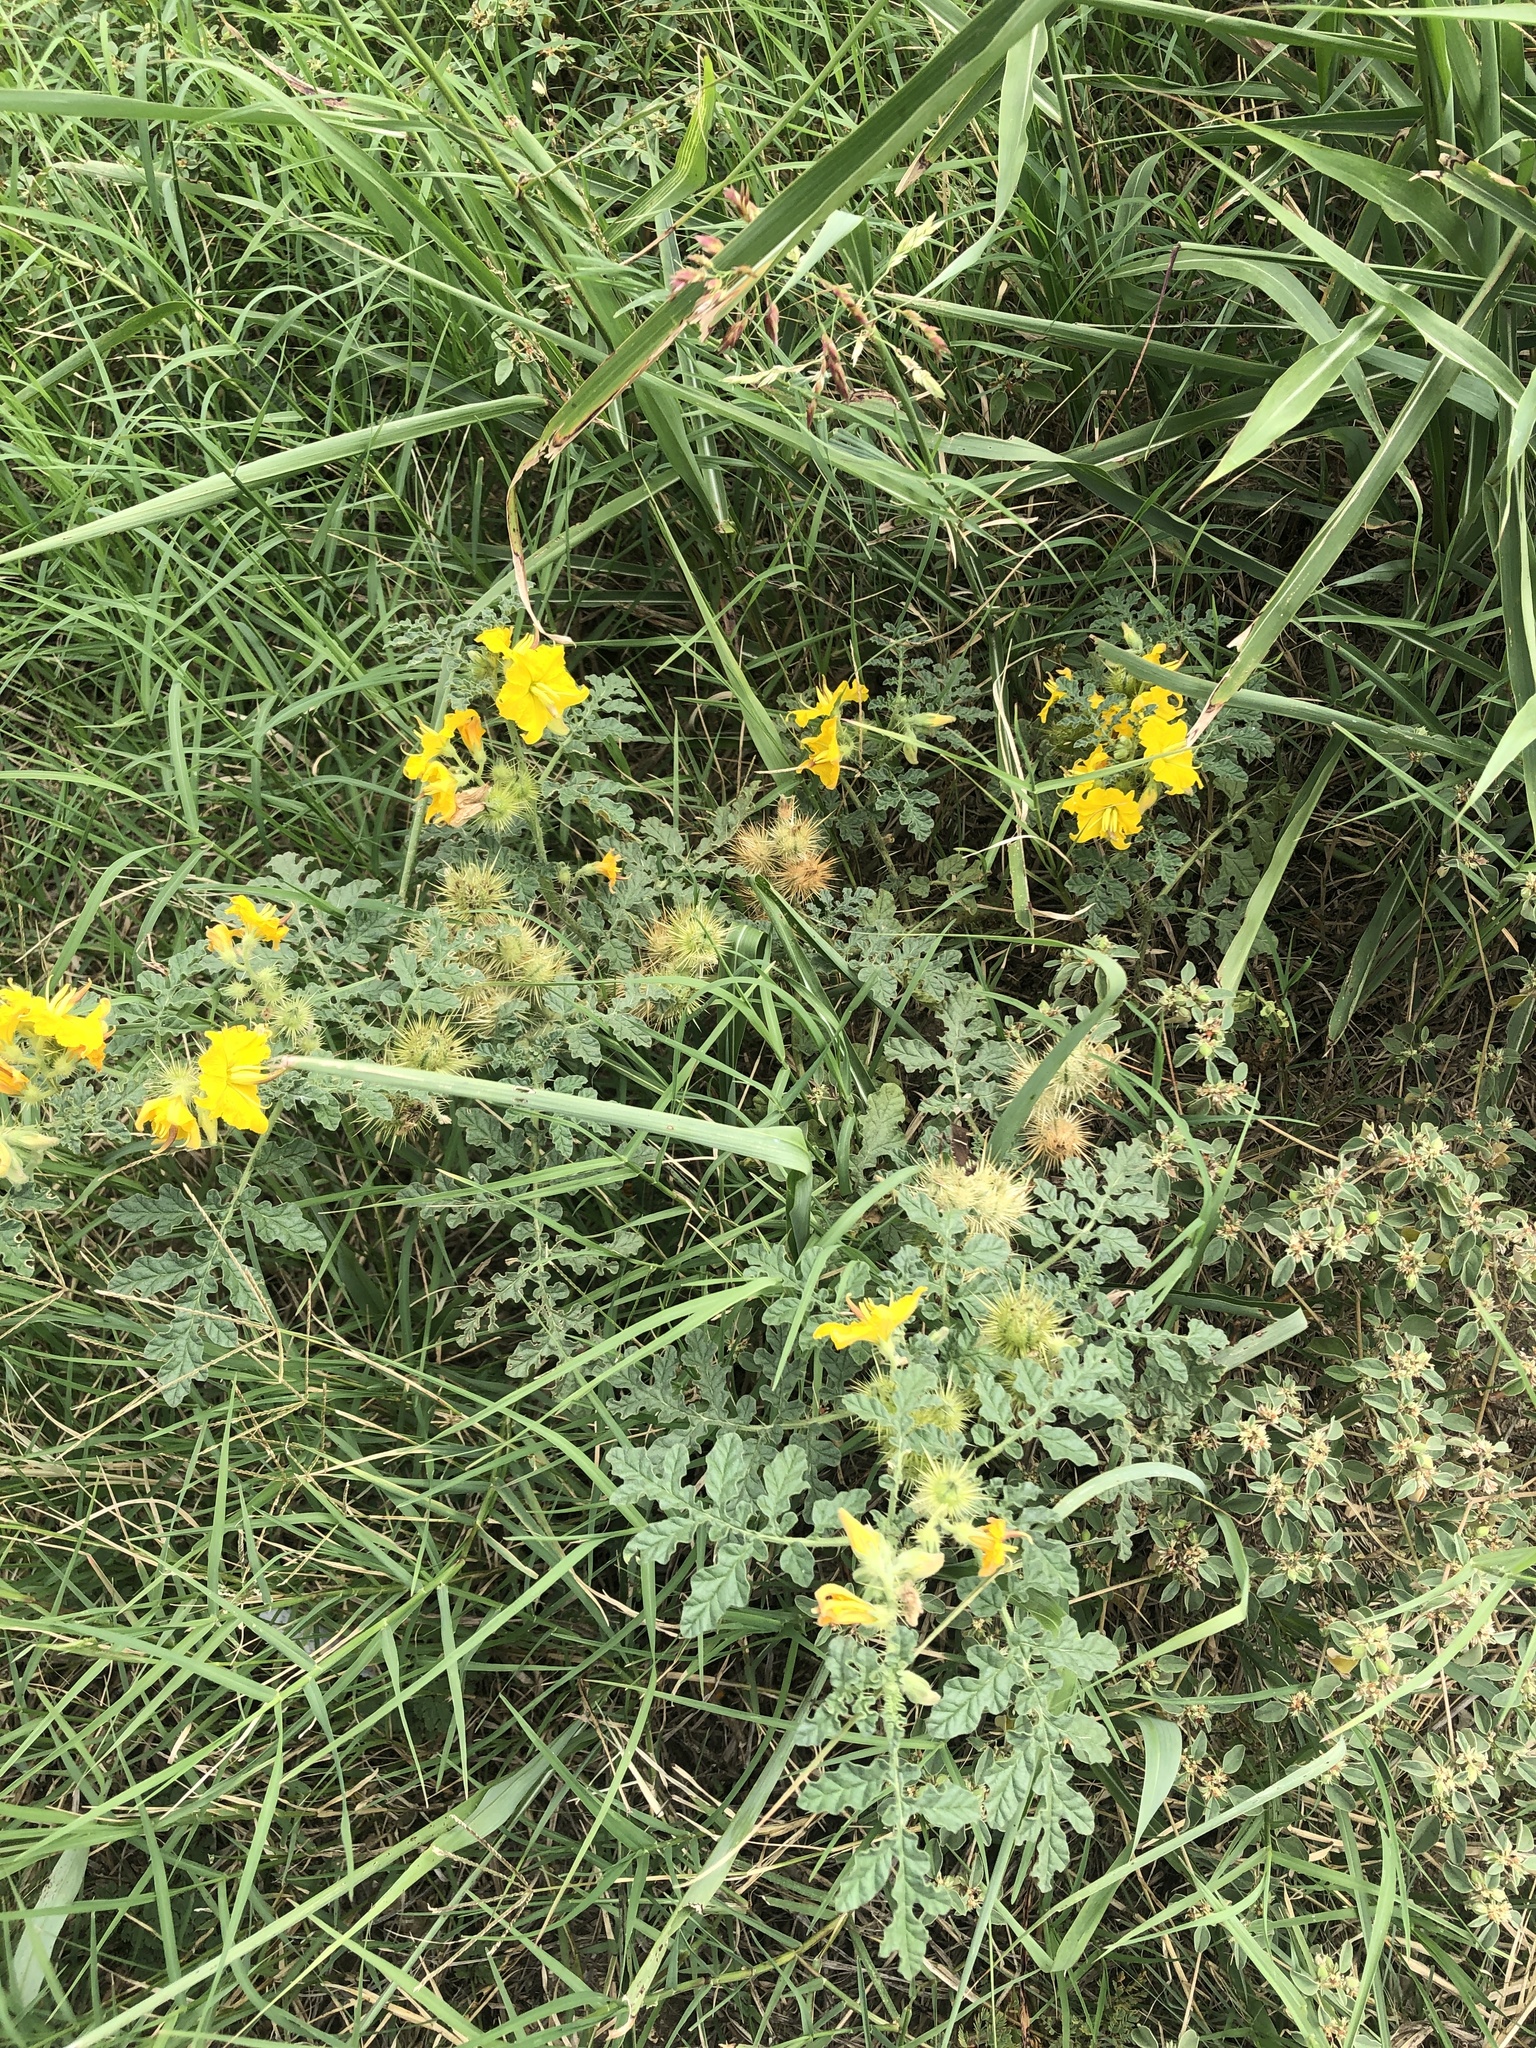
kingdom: Plantae
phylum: Tracheophyta
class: Magnoliopsida
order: Solanales
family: Solanaceae
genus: Solanum
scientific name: Solanum angustifolium
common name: Buffalobur nightshade
